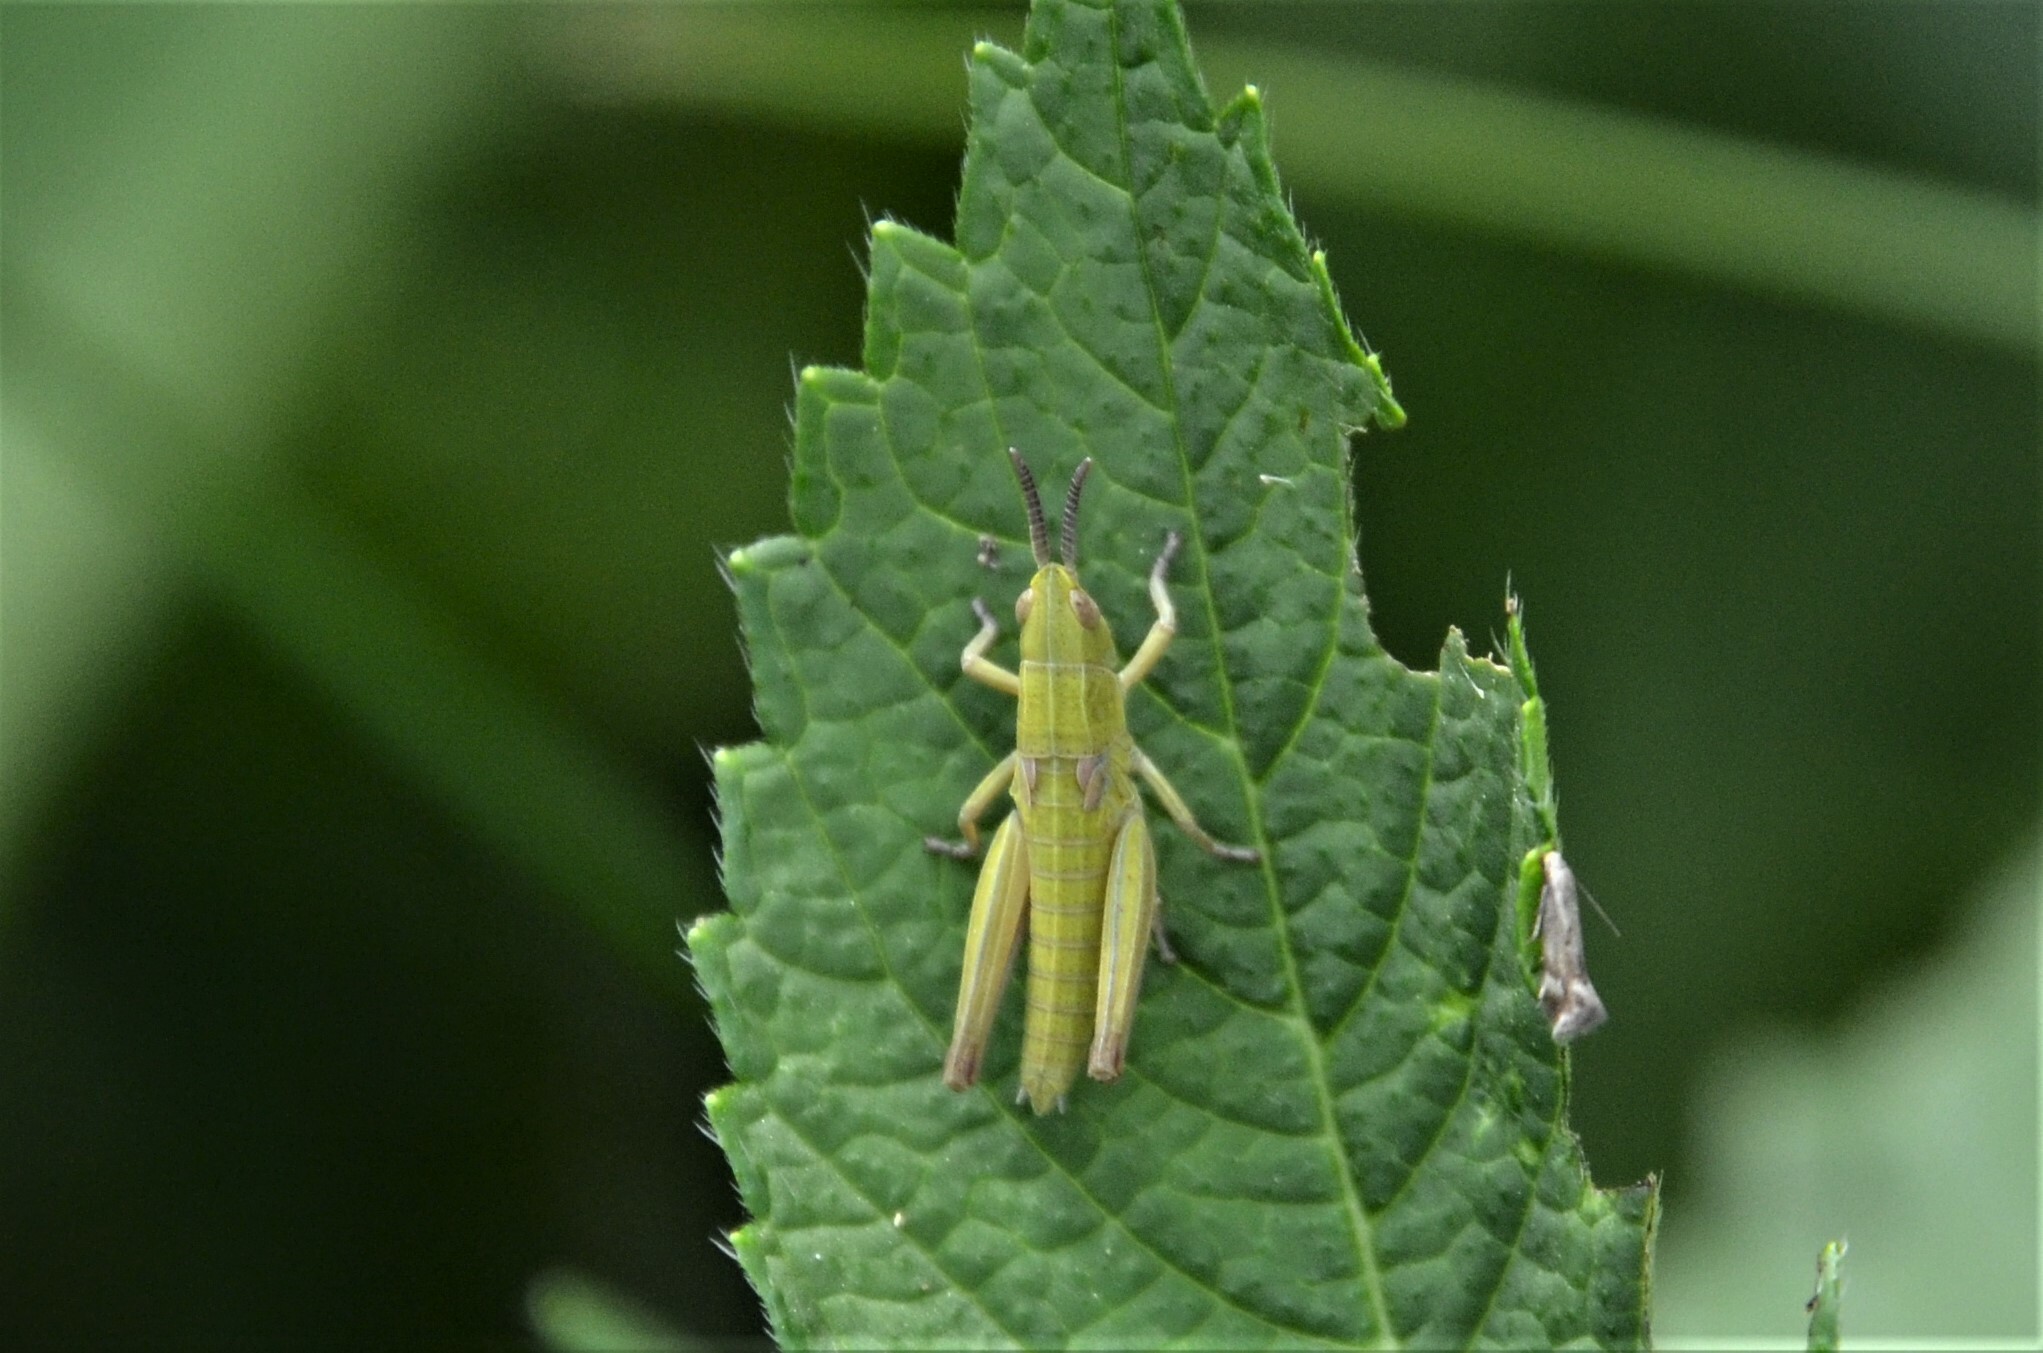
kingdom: Animalia
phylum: Arthropoda
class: Insecta
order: Orthoptera
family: Acrididae
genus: Euthystira
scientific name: Euthystira brachyptera
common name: Small gold grasshopper
